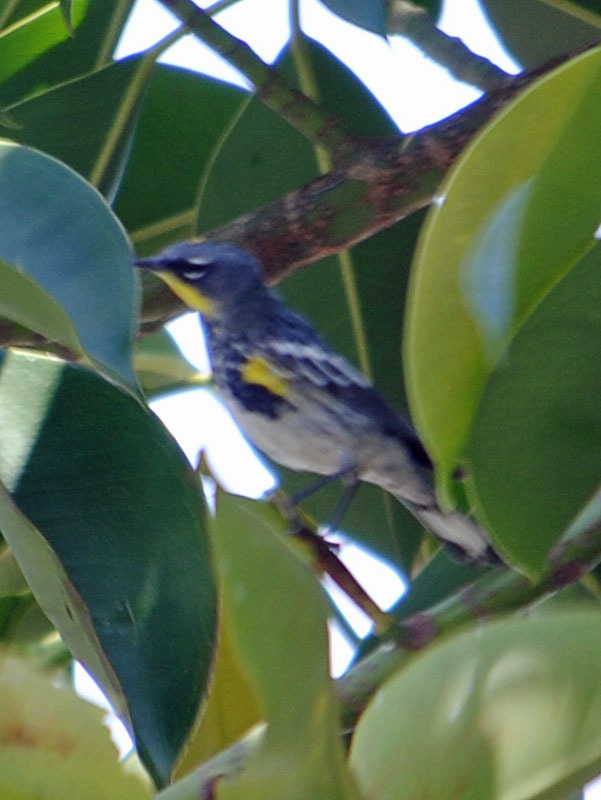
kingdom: Animalia
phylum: Chordata
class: Aves
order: Passeriformes
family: Parulidae
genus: Setophaga
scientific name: Setophaga auduboni
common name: Audubon's warbler
